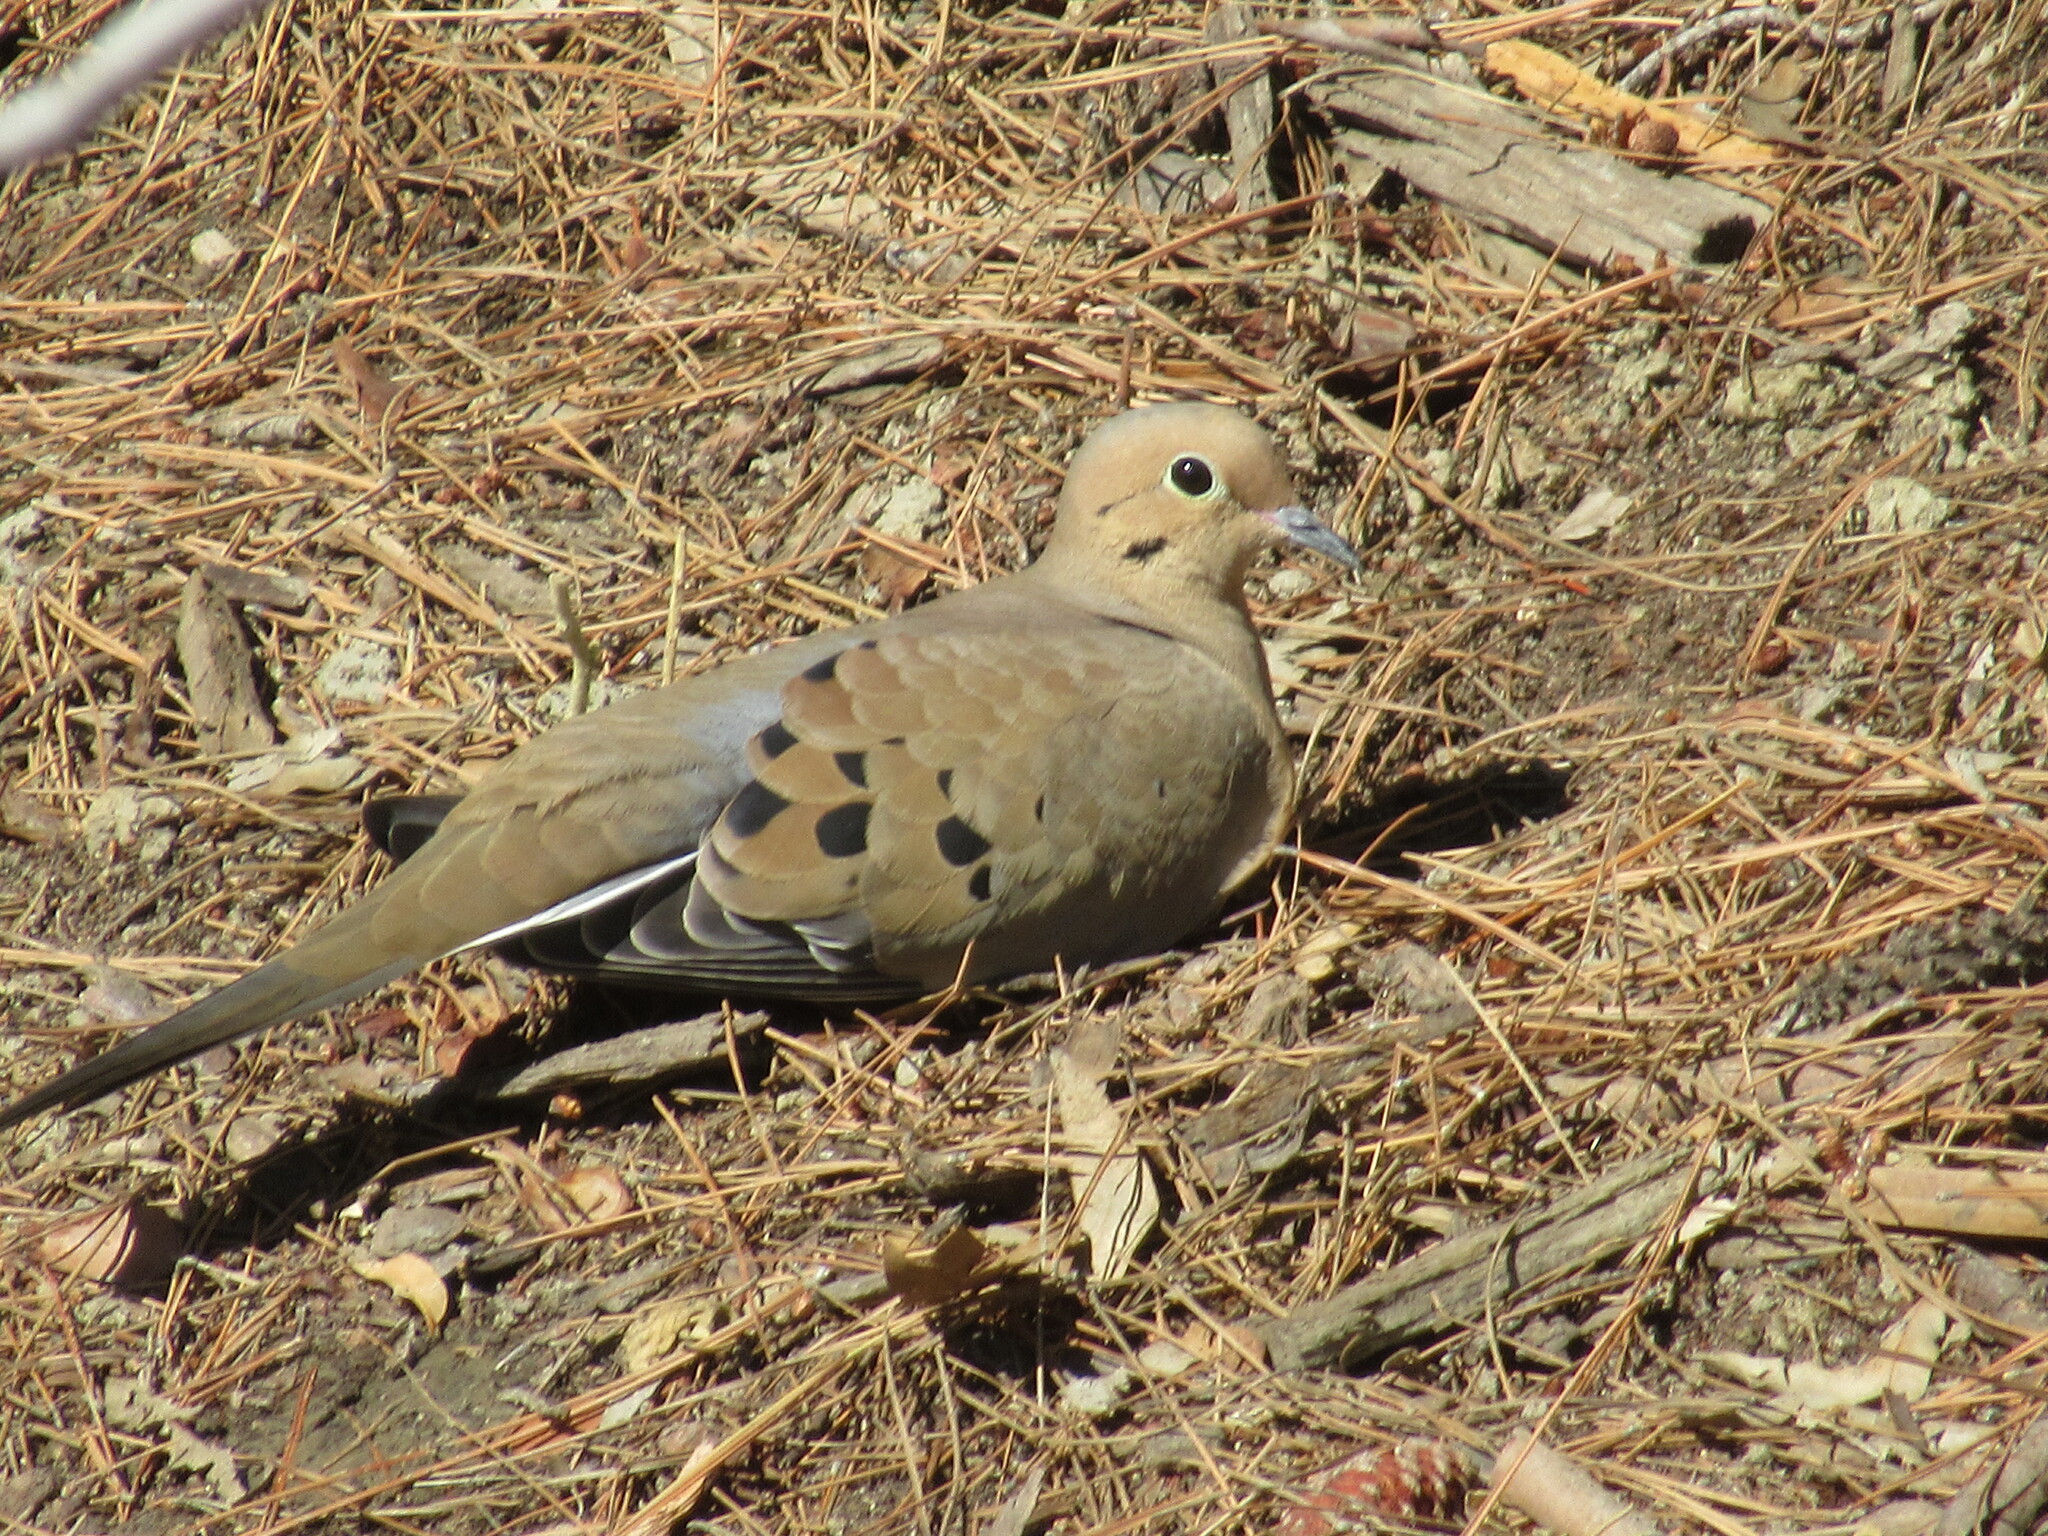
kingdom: Animalia
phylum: Chordata
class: Aves
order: Columbiformes
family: Columbidae
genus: Zenaida
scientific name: Zenaida macroura
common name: Mourning dove
